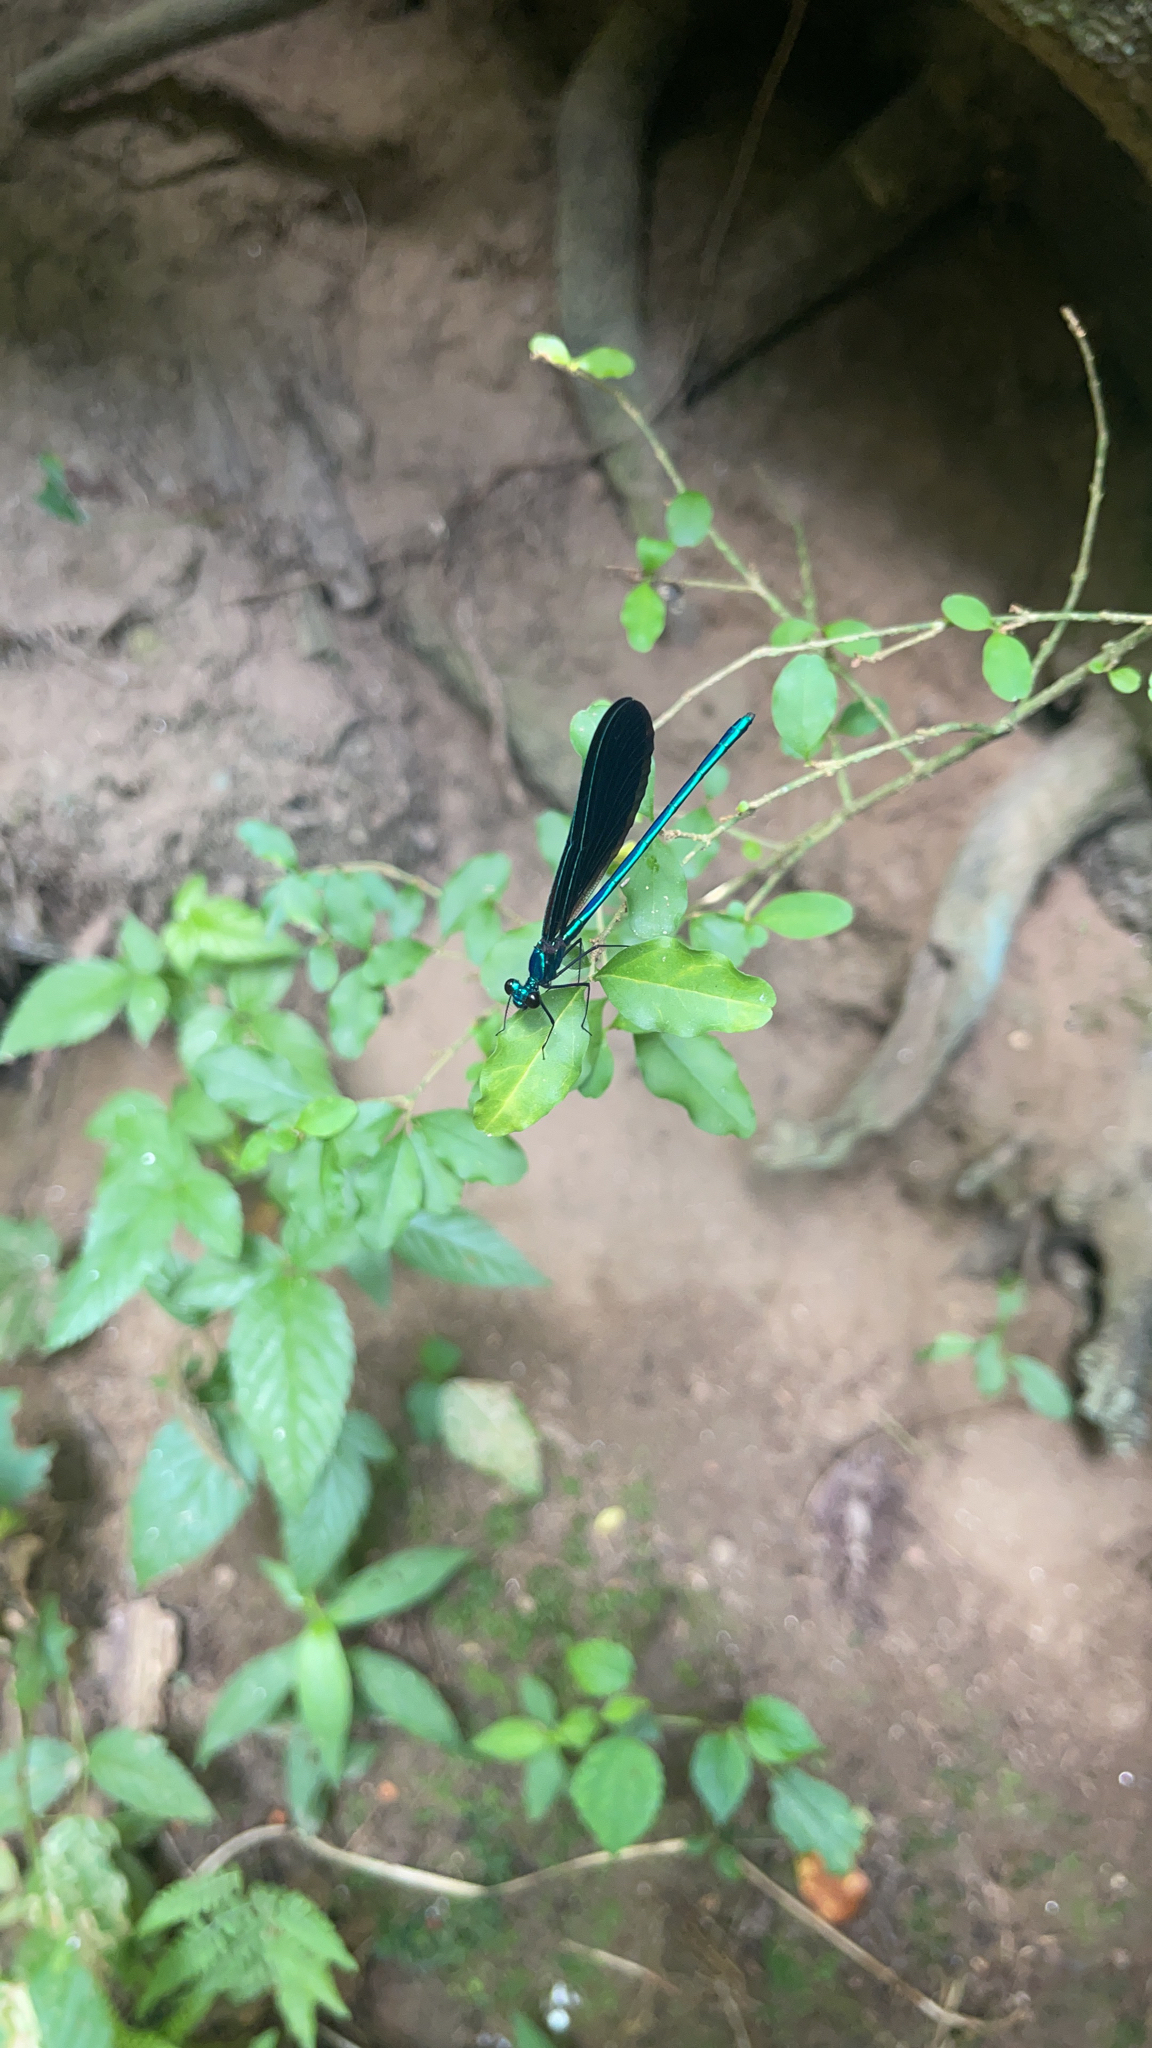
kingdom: Animalia
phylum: Arthropoda
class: Insecta
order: Odonata
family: Calopterygidae
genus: Calopteryx
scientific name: Calopteryx maculata
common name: Ebony jewelwing
